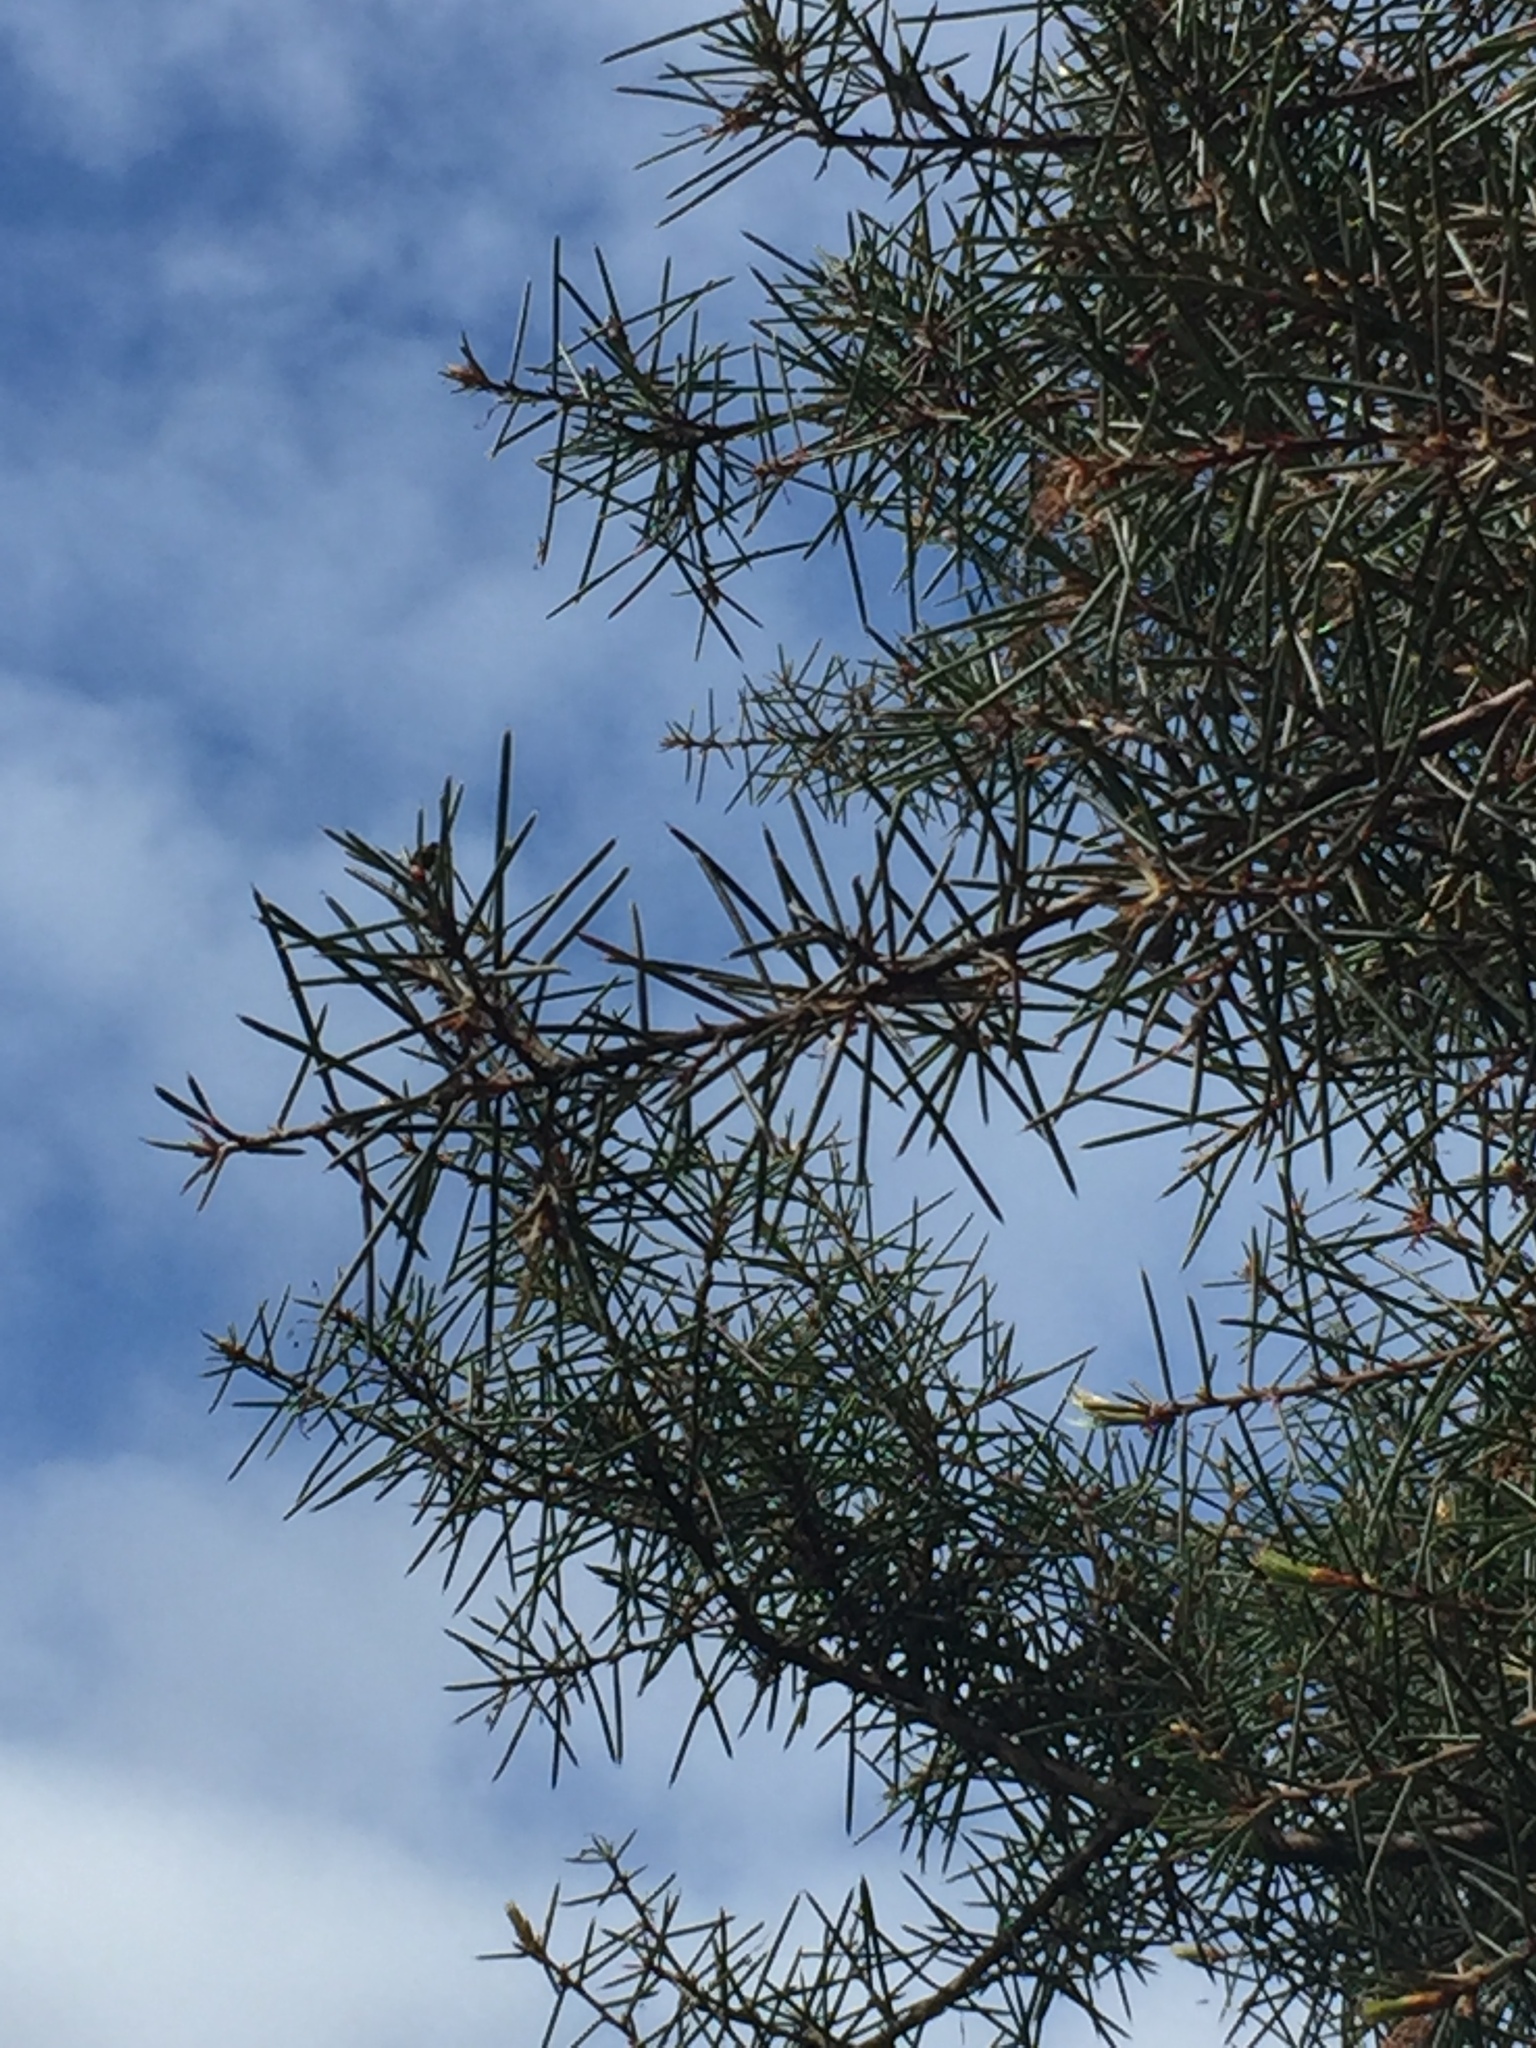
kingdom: Plantae
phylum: Tracheophyta
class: Magnoliopsida
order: Proteales
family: Proteaceae
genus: Hakea
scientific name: Hakea sericea
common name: Needle bush
